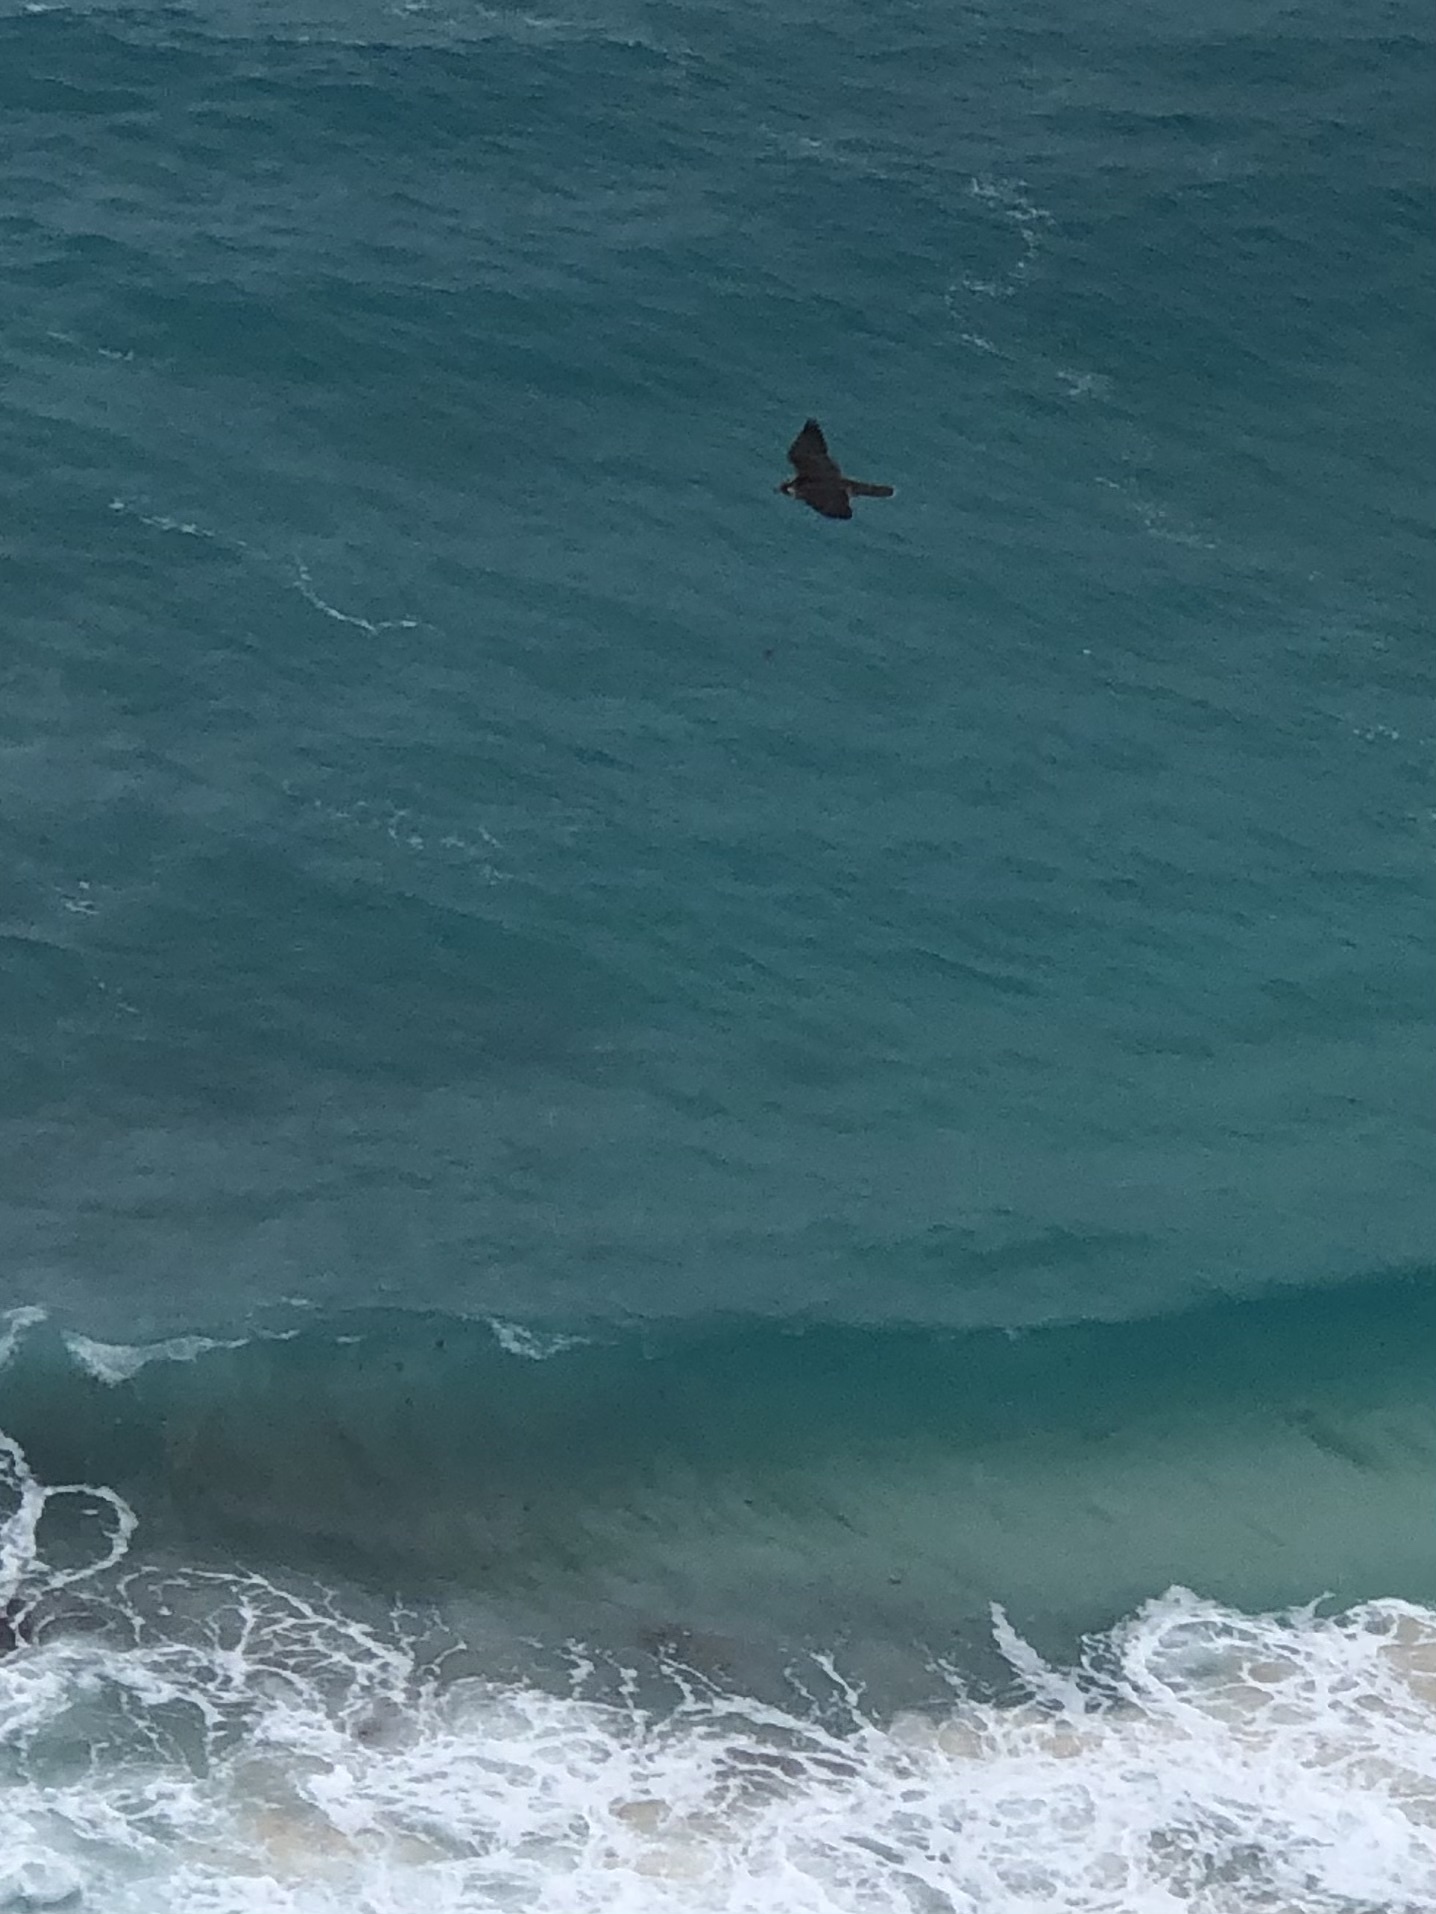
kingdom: Animalia
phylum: Chordata
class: Aves
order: Falconiformes
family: Falconidae
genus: Falco
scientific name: Falco peregrinus
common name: Peregrine falcon
